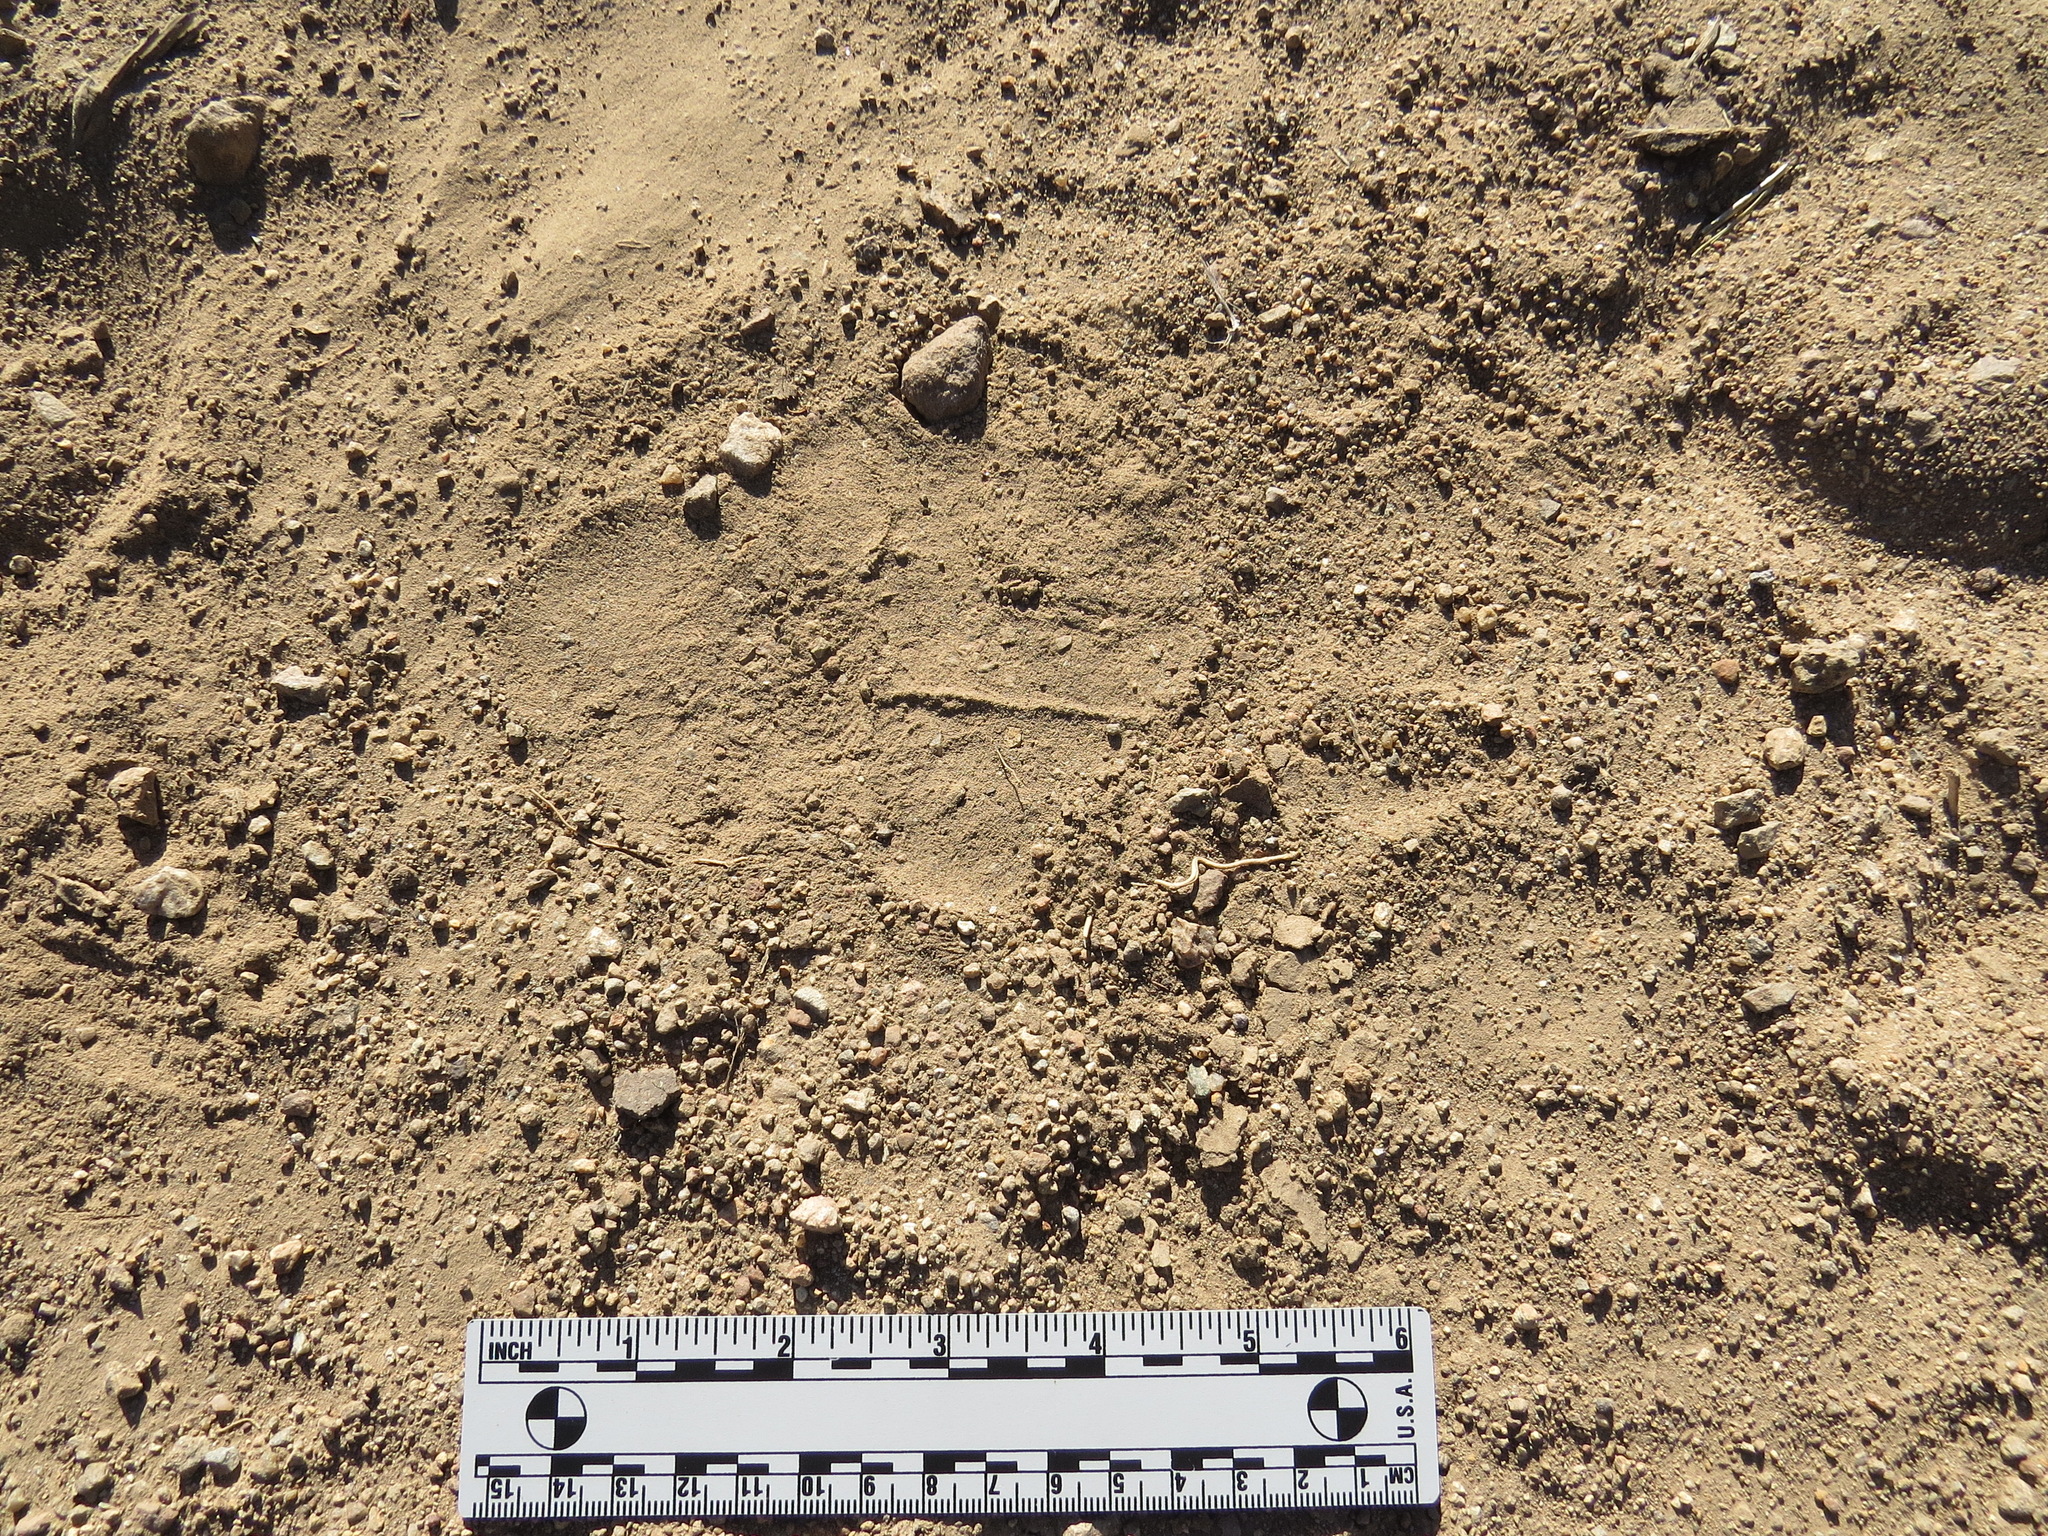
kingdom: Animalia
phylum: Chordata
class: Mammalia
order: Carnivora
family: Ursidae
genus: Ursus
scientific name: Ursus americanus
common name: American black bear
